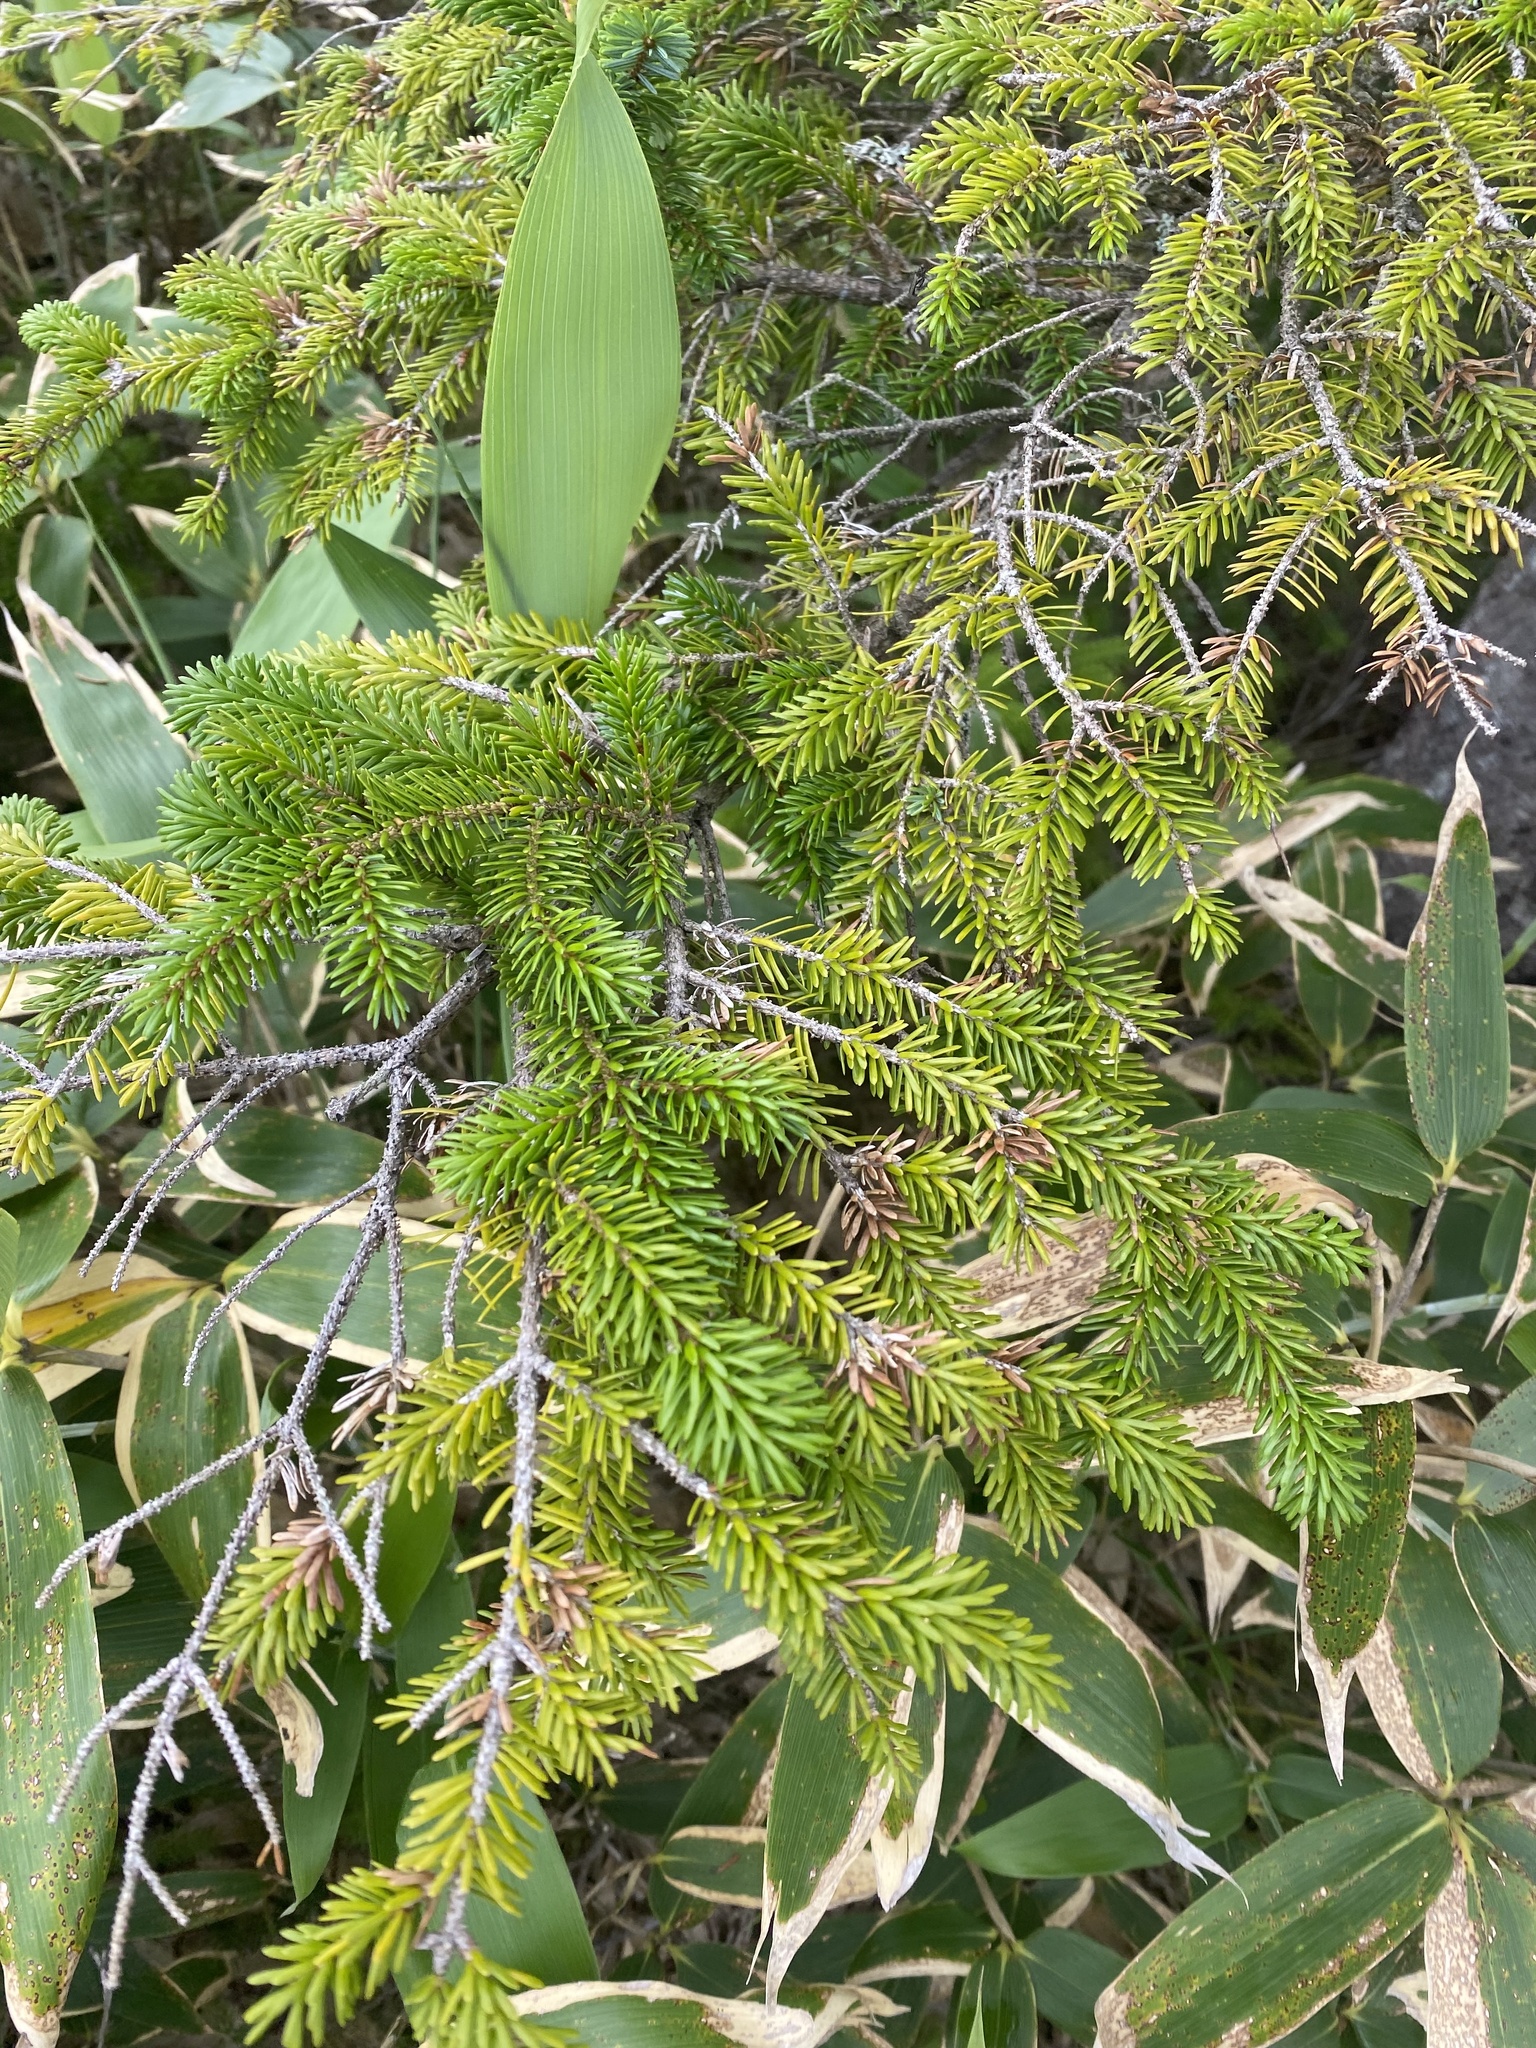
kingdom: Plantae
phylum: Tracheophyta
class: Pinopsida
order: Pinales
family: Pinaceae
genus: Picea
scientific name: Picea jezoensis
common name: Yeddo spruce
